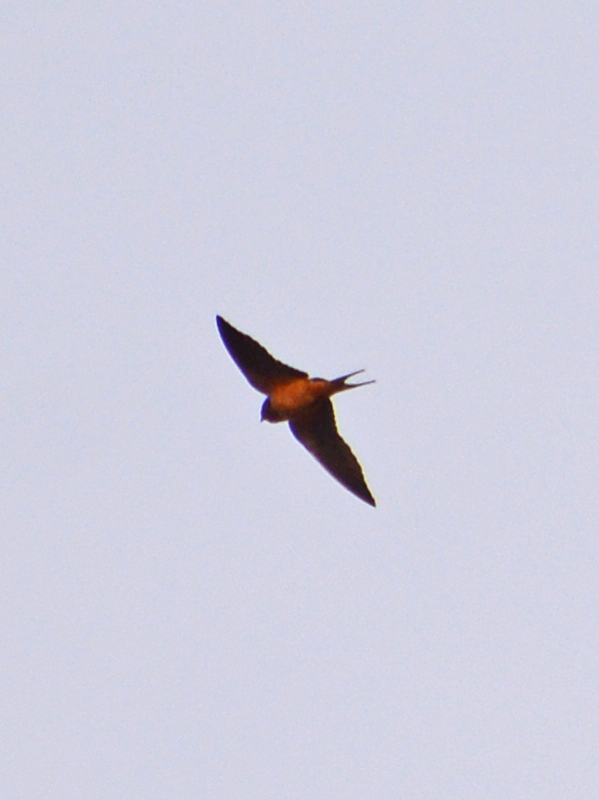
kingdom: Animalia
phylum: Chordata
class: Aves
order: Passeriformes
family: Hirundinidae
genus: Hirundo
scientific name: Hirundo rustica
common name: Barn swallow
